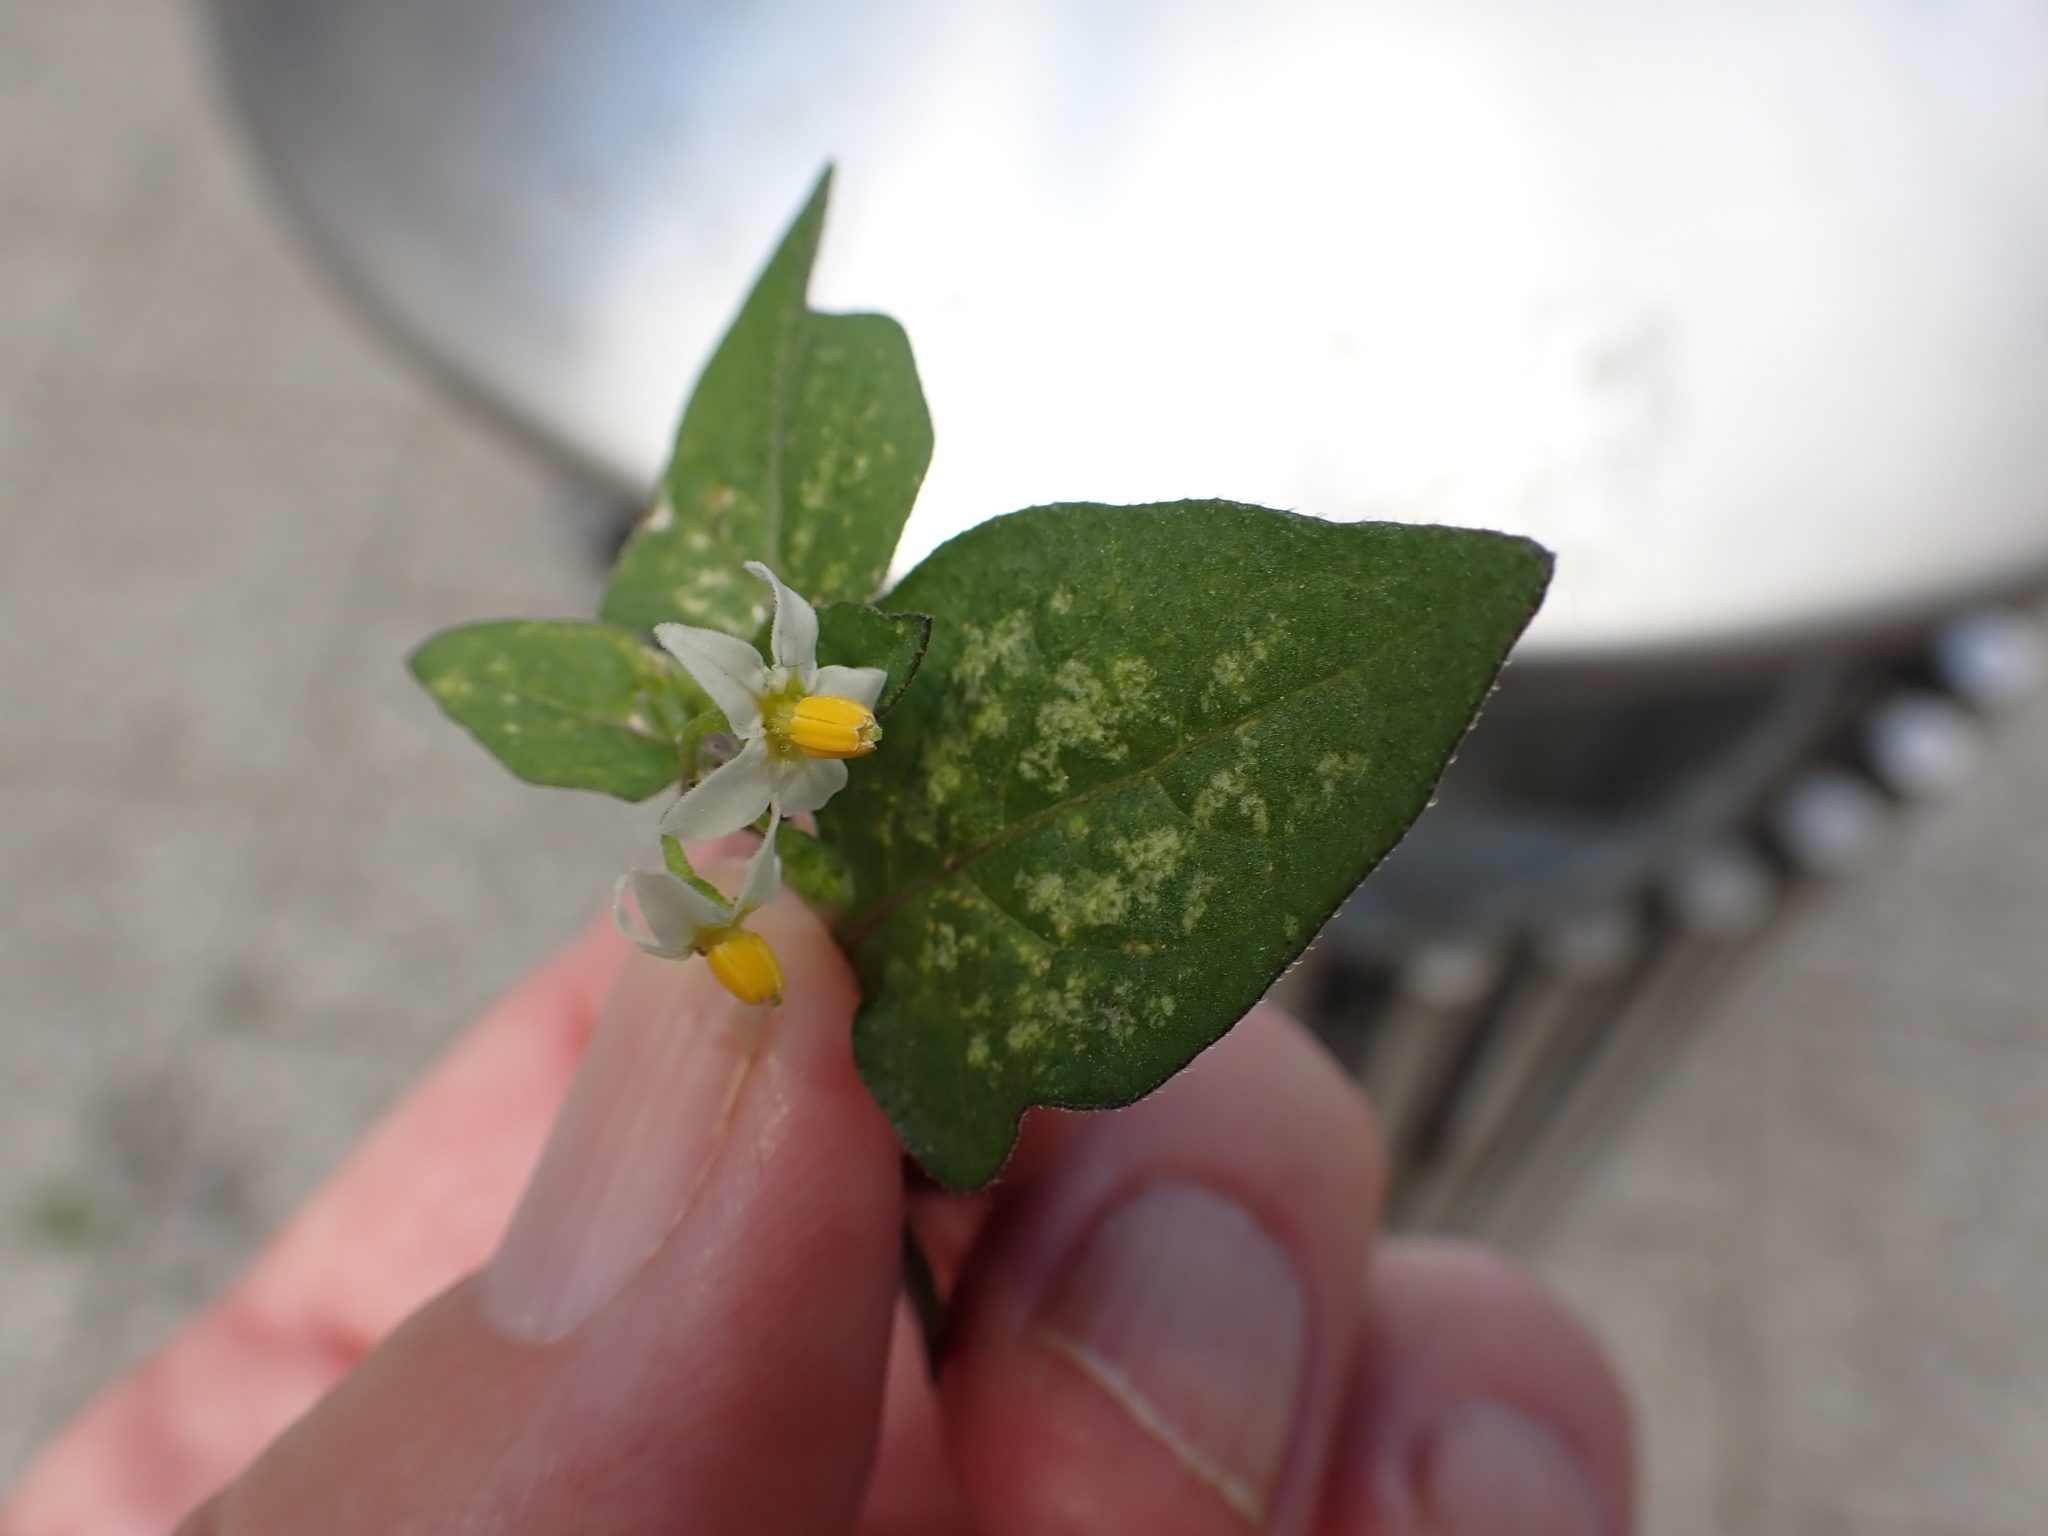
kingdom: Plantae
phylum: Tracheophyta
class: Magnoliopsida
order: Solanales
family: Solanaceae
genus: Solanum
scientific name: Solanum nigrum
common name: Black nightshade
